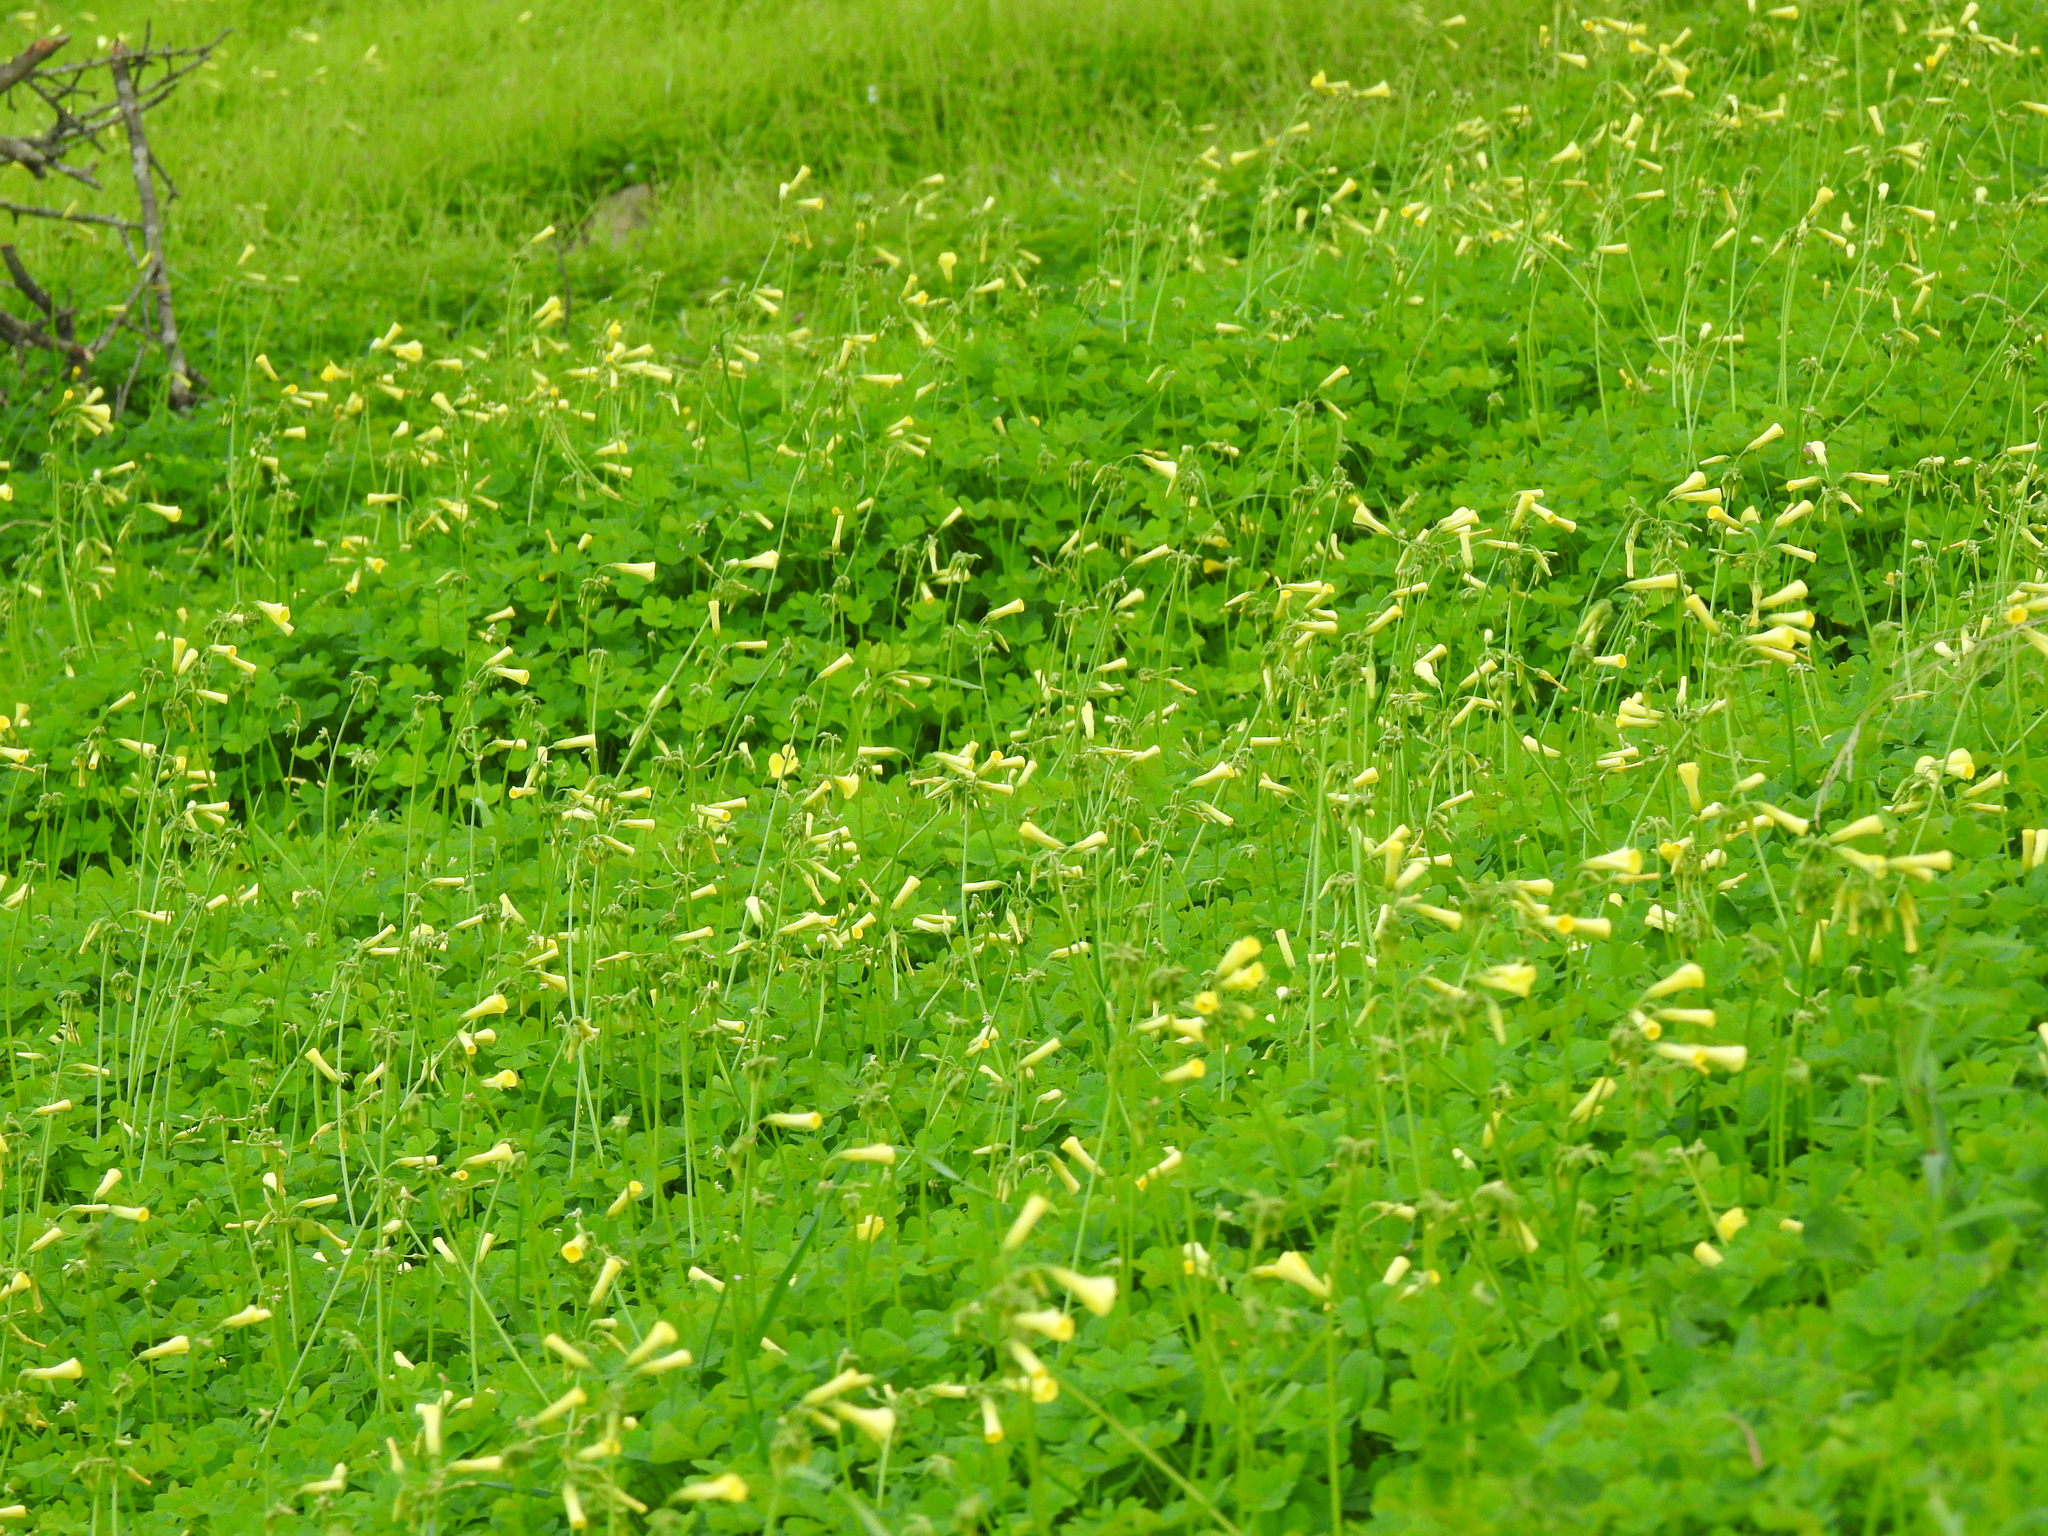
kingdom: Plantae
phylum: Tracheophyta
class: Magnoliopsida
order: Oxalidales
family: Oxalidaceae
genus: Oxalis
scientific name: Oxalis pes-caprae
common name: Bermuda-buttercup
